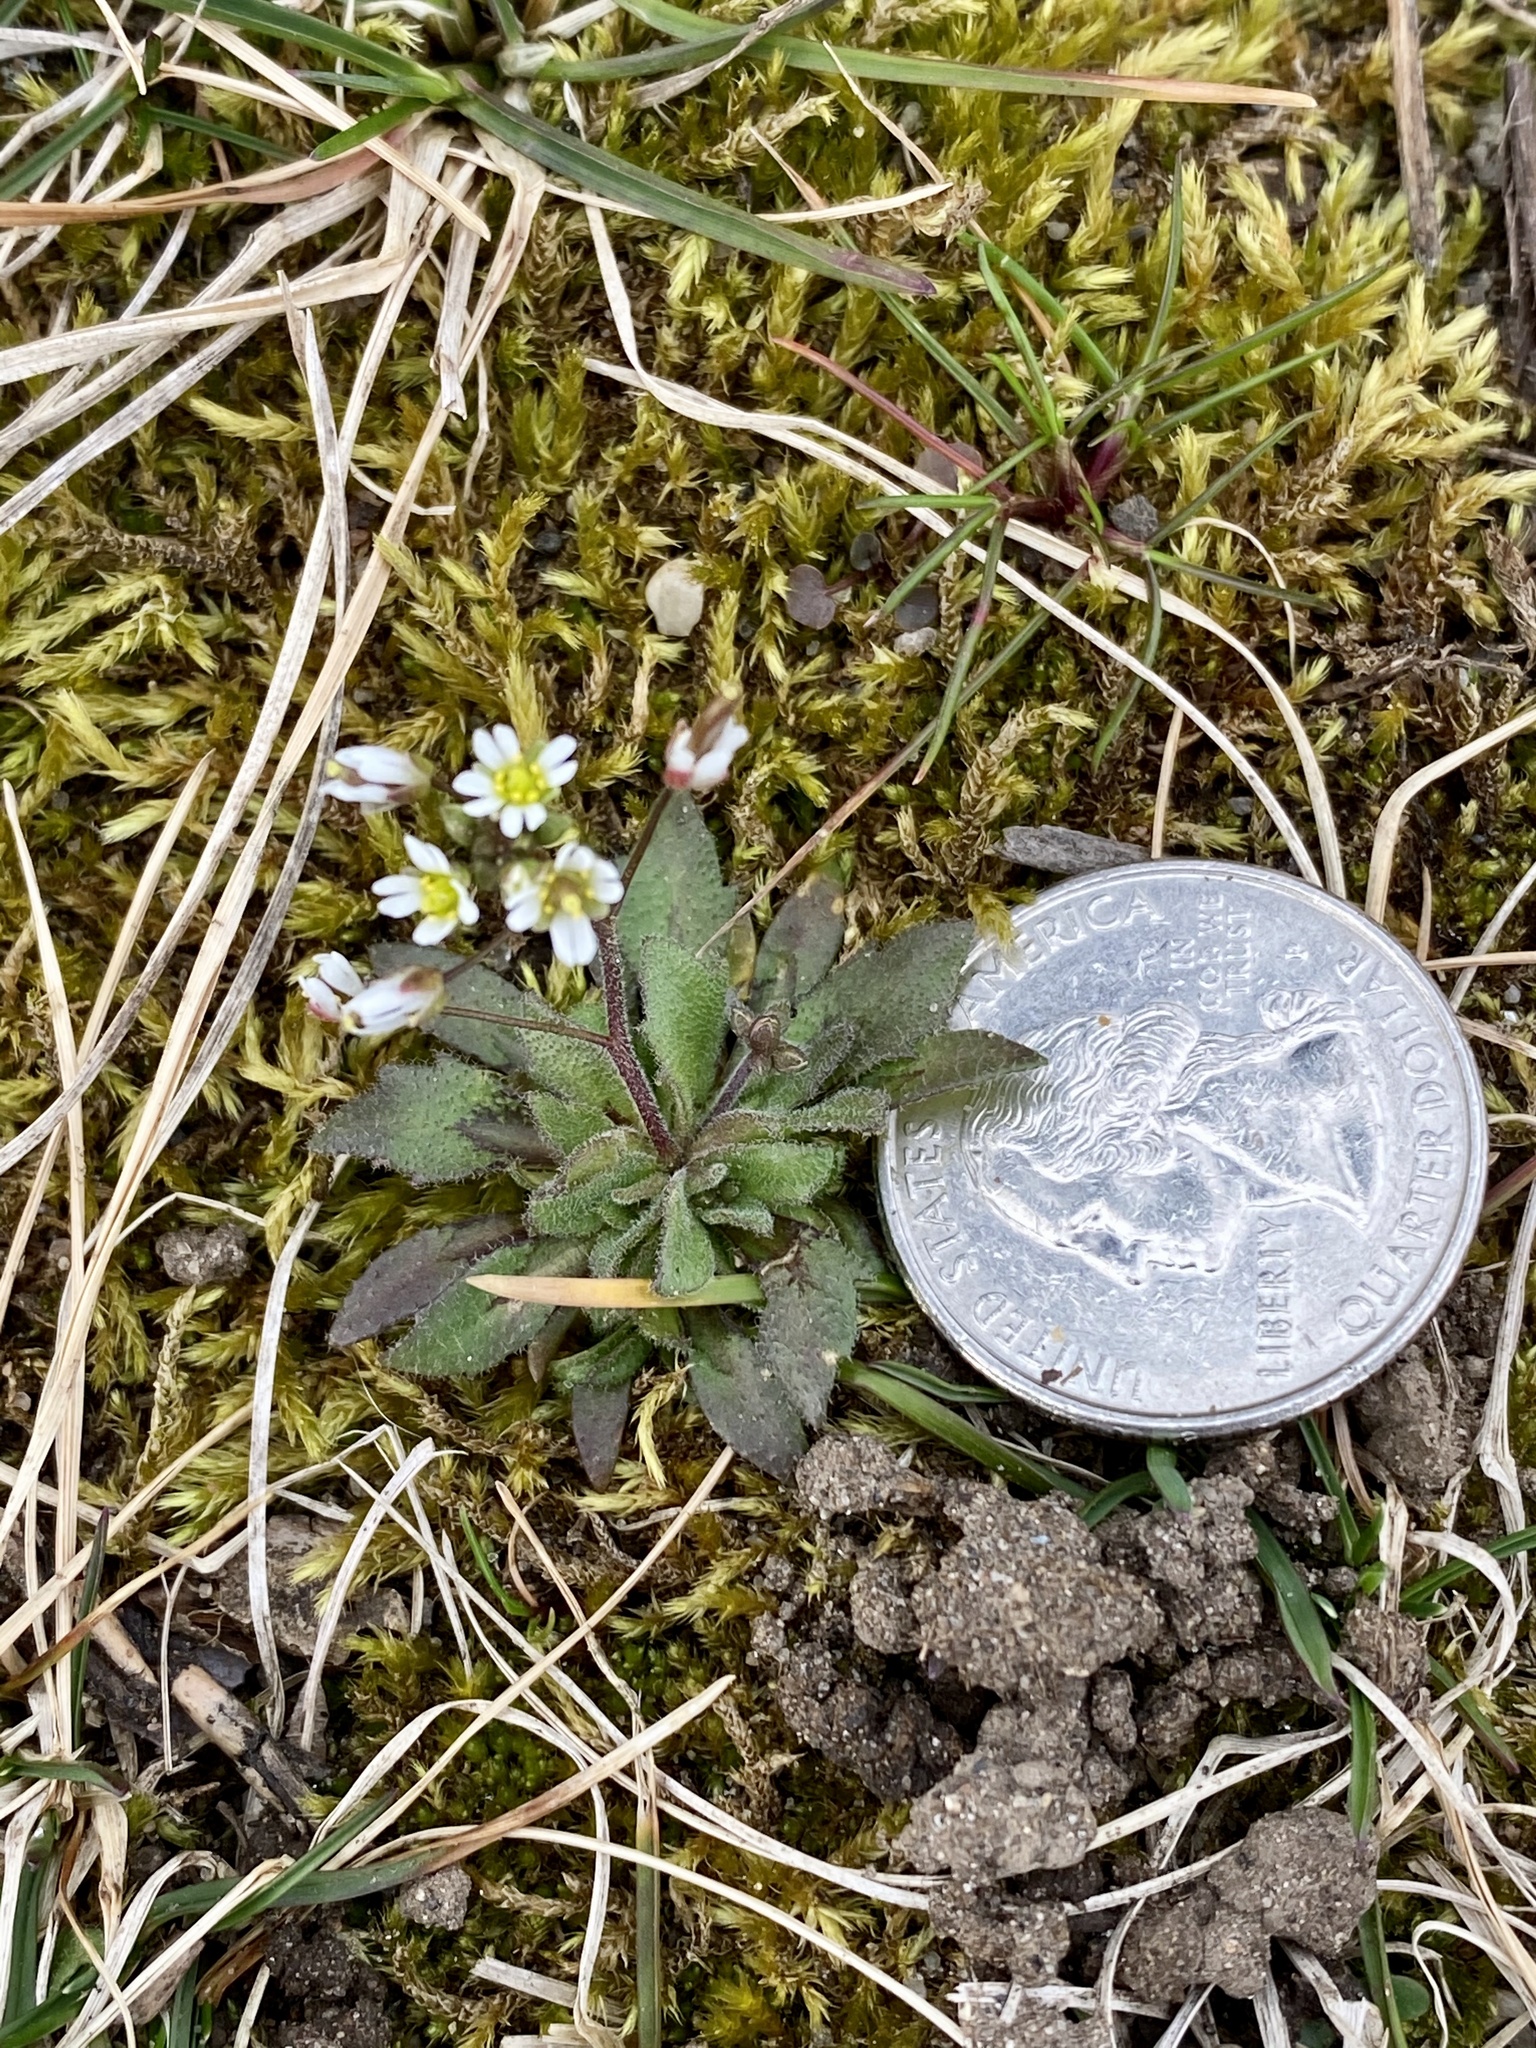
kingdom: Plantae
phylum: Tracheophyta
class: Magnoliopsida
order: Brassicales
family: Brassicaceae
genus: Draba
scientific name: Draba verna
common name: Spring draba
